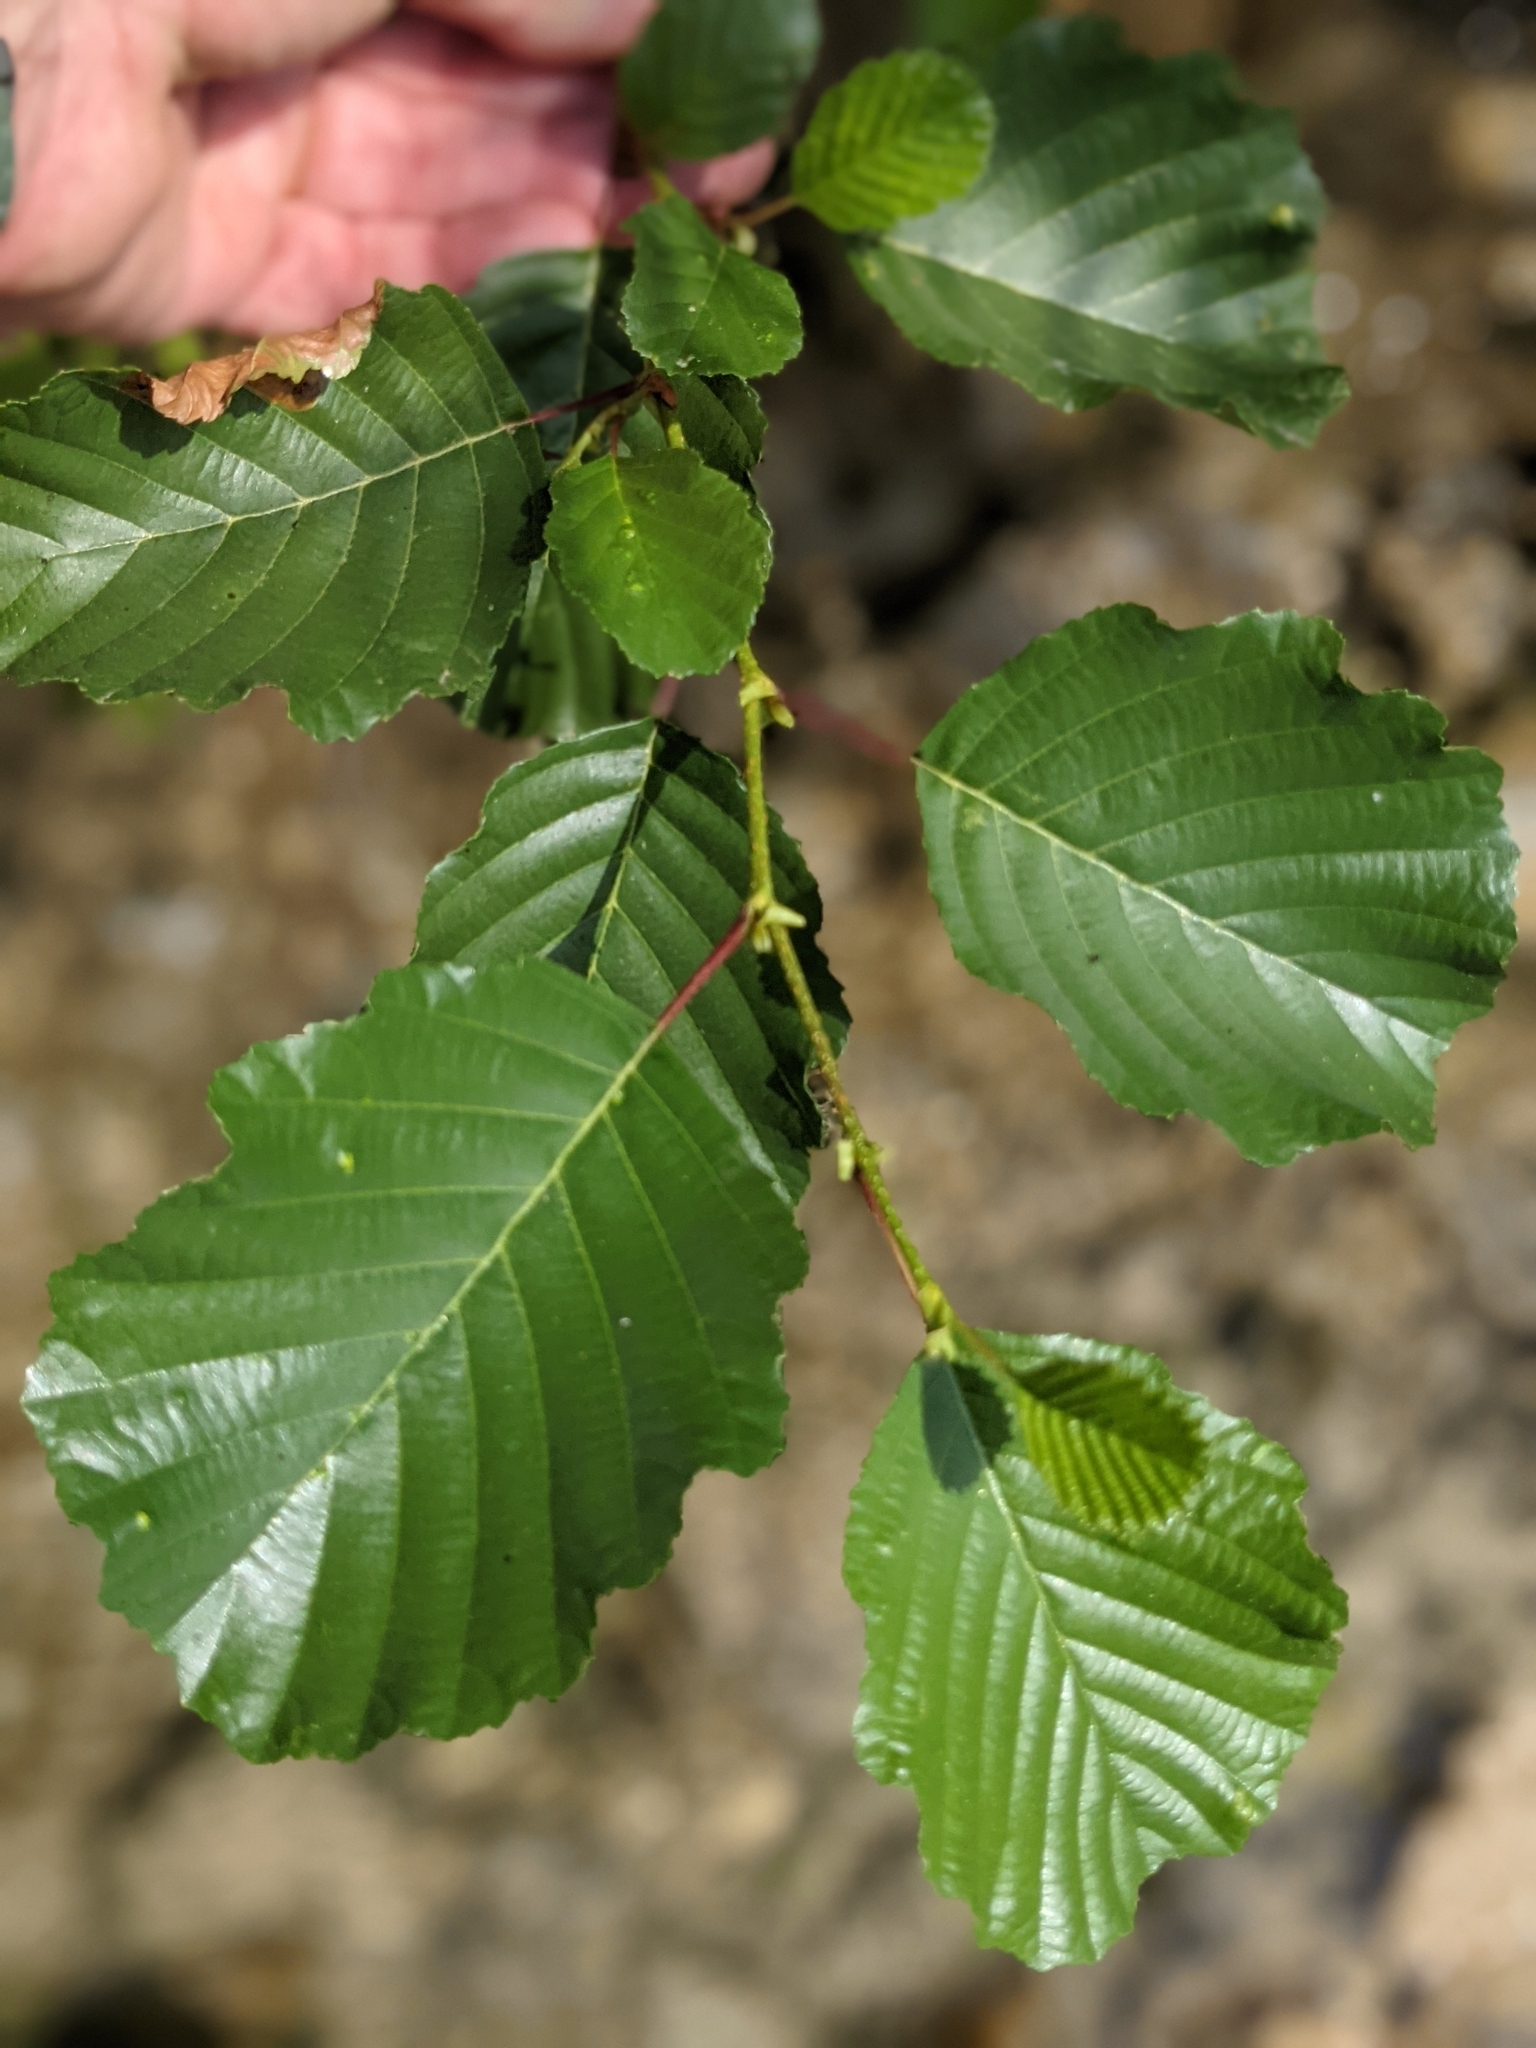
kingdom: Plantae
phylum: Tracheophyta
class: Magnoliopsida
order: Fagales
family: Betulaceae
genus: Alnus
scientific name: Alnus glutinosa
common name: Black alder
